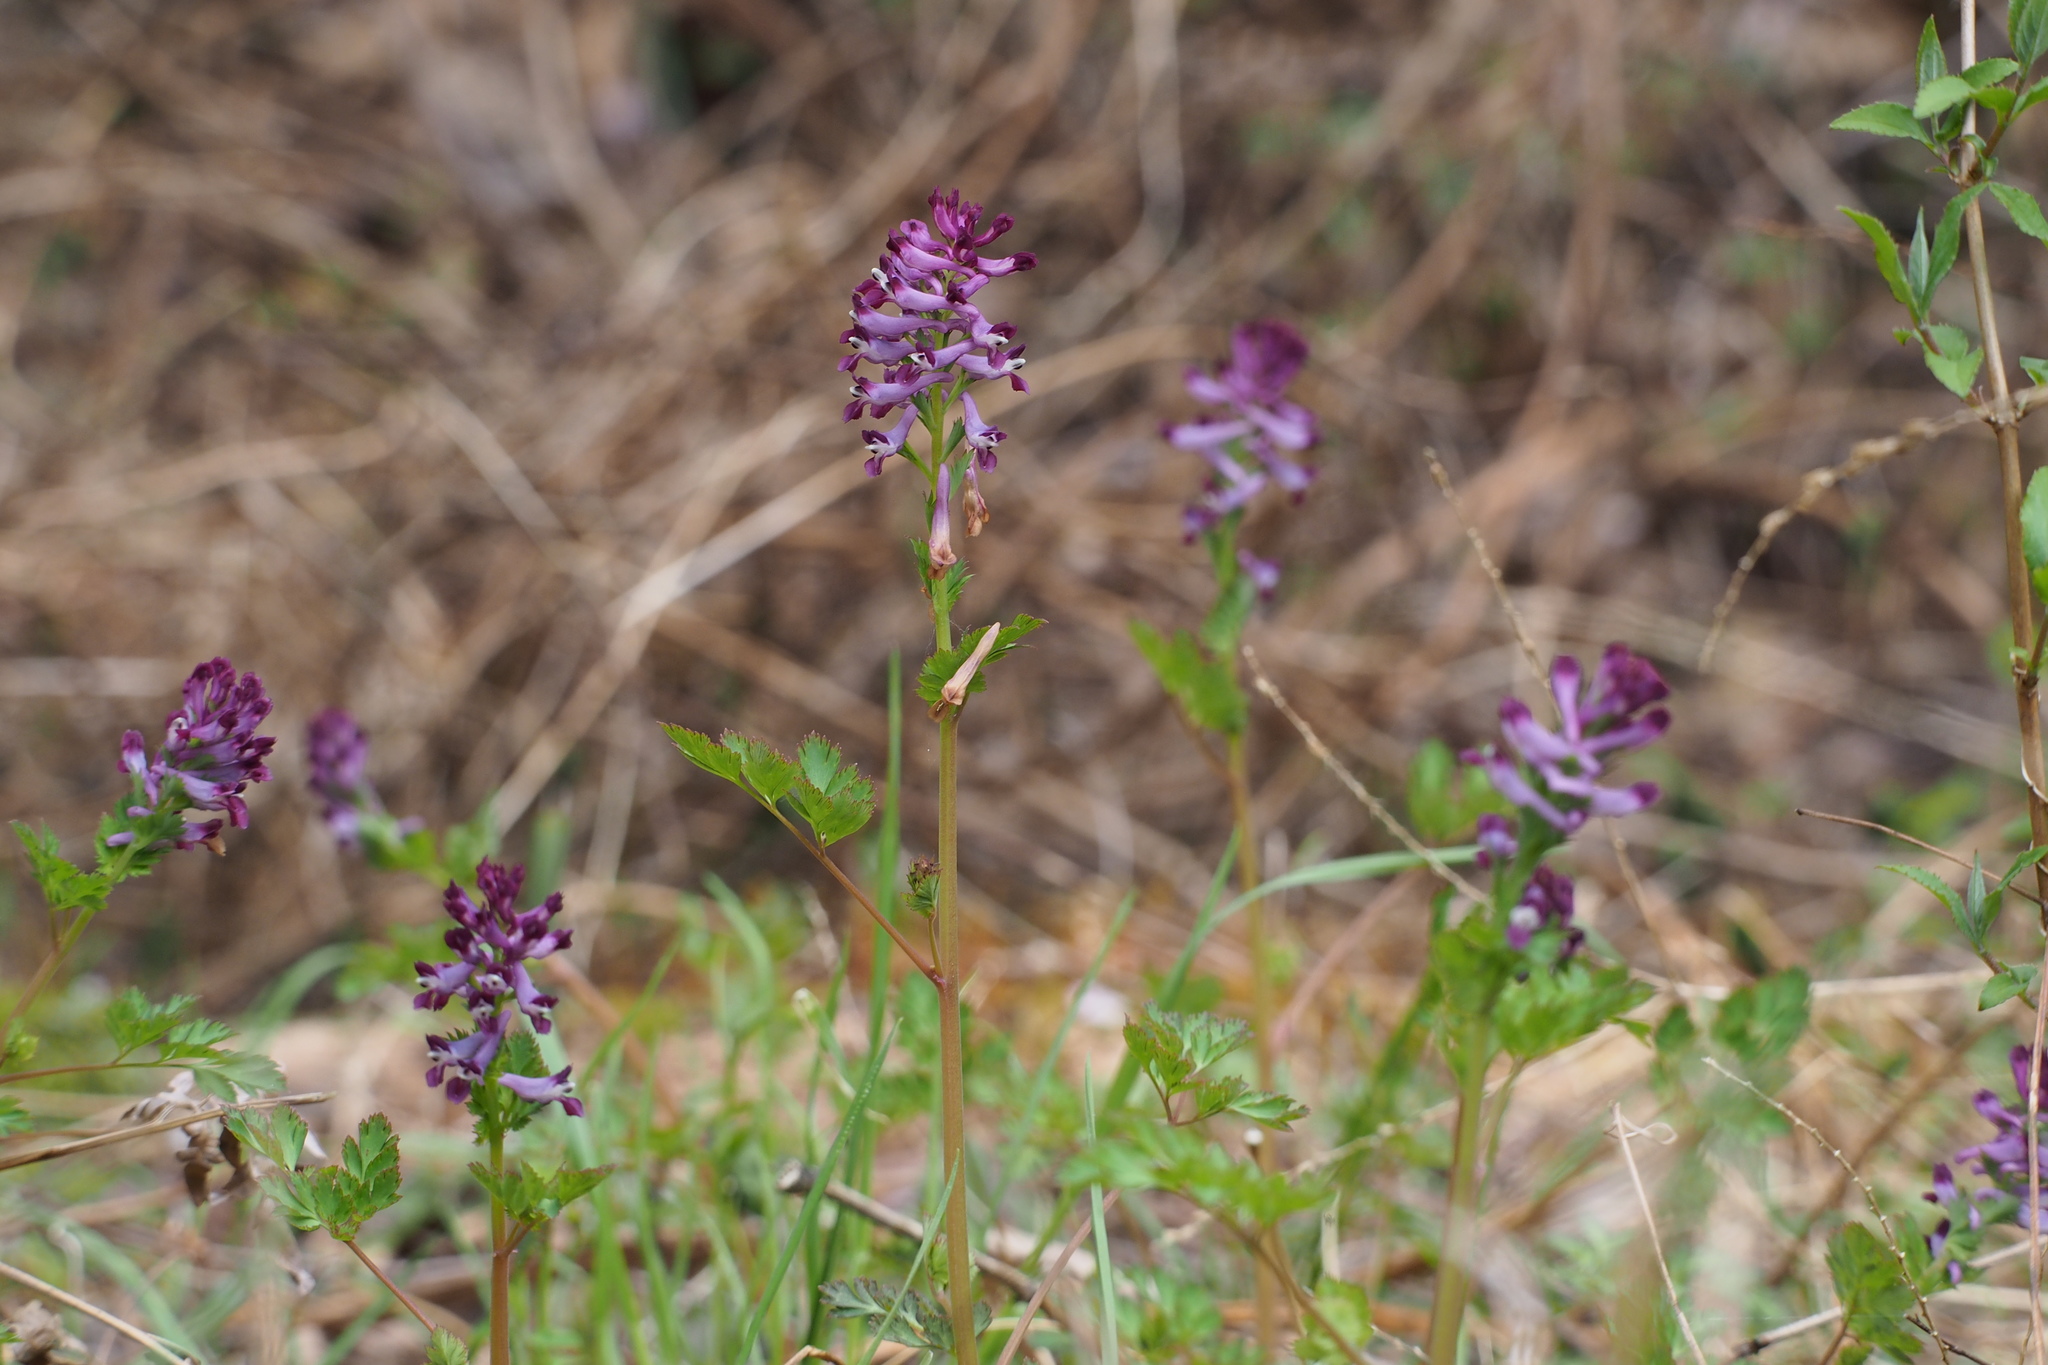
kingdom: Plantae
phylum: Tracheophyta
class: Magnoliopsida
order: Ranunculales
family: Papaveraceae
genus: Corydalis
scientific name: Corydalis incisa
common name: Incised fumewort
